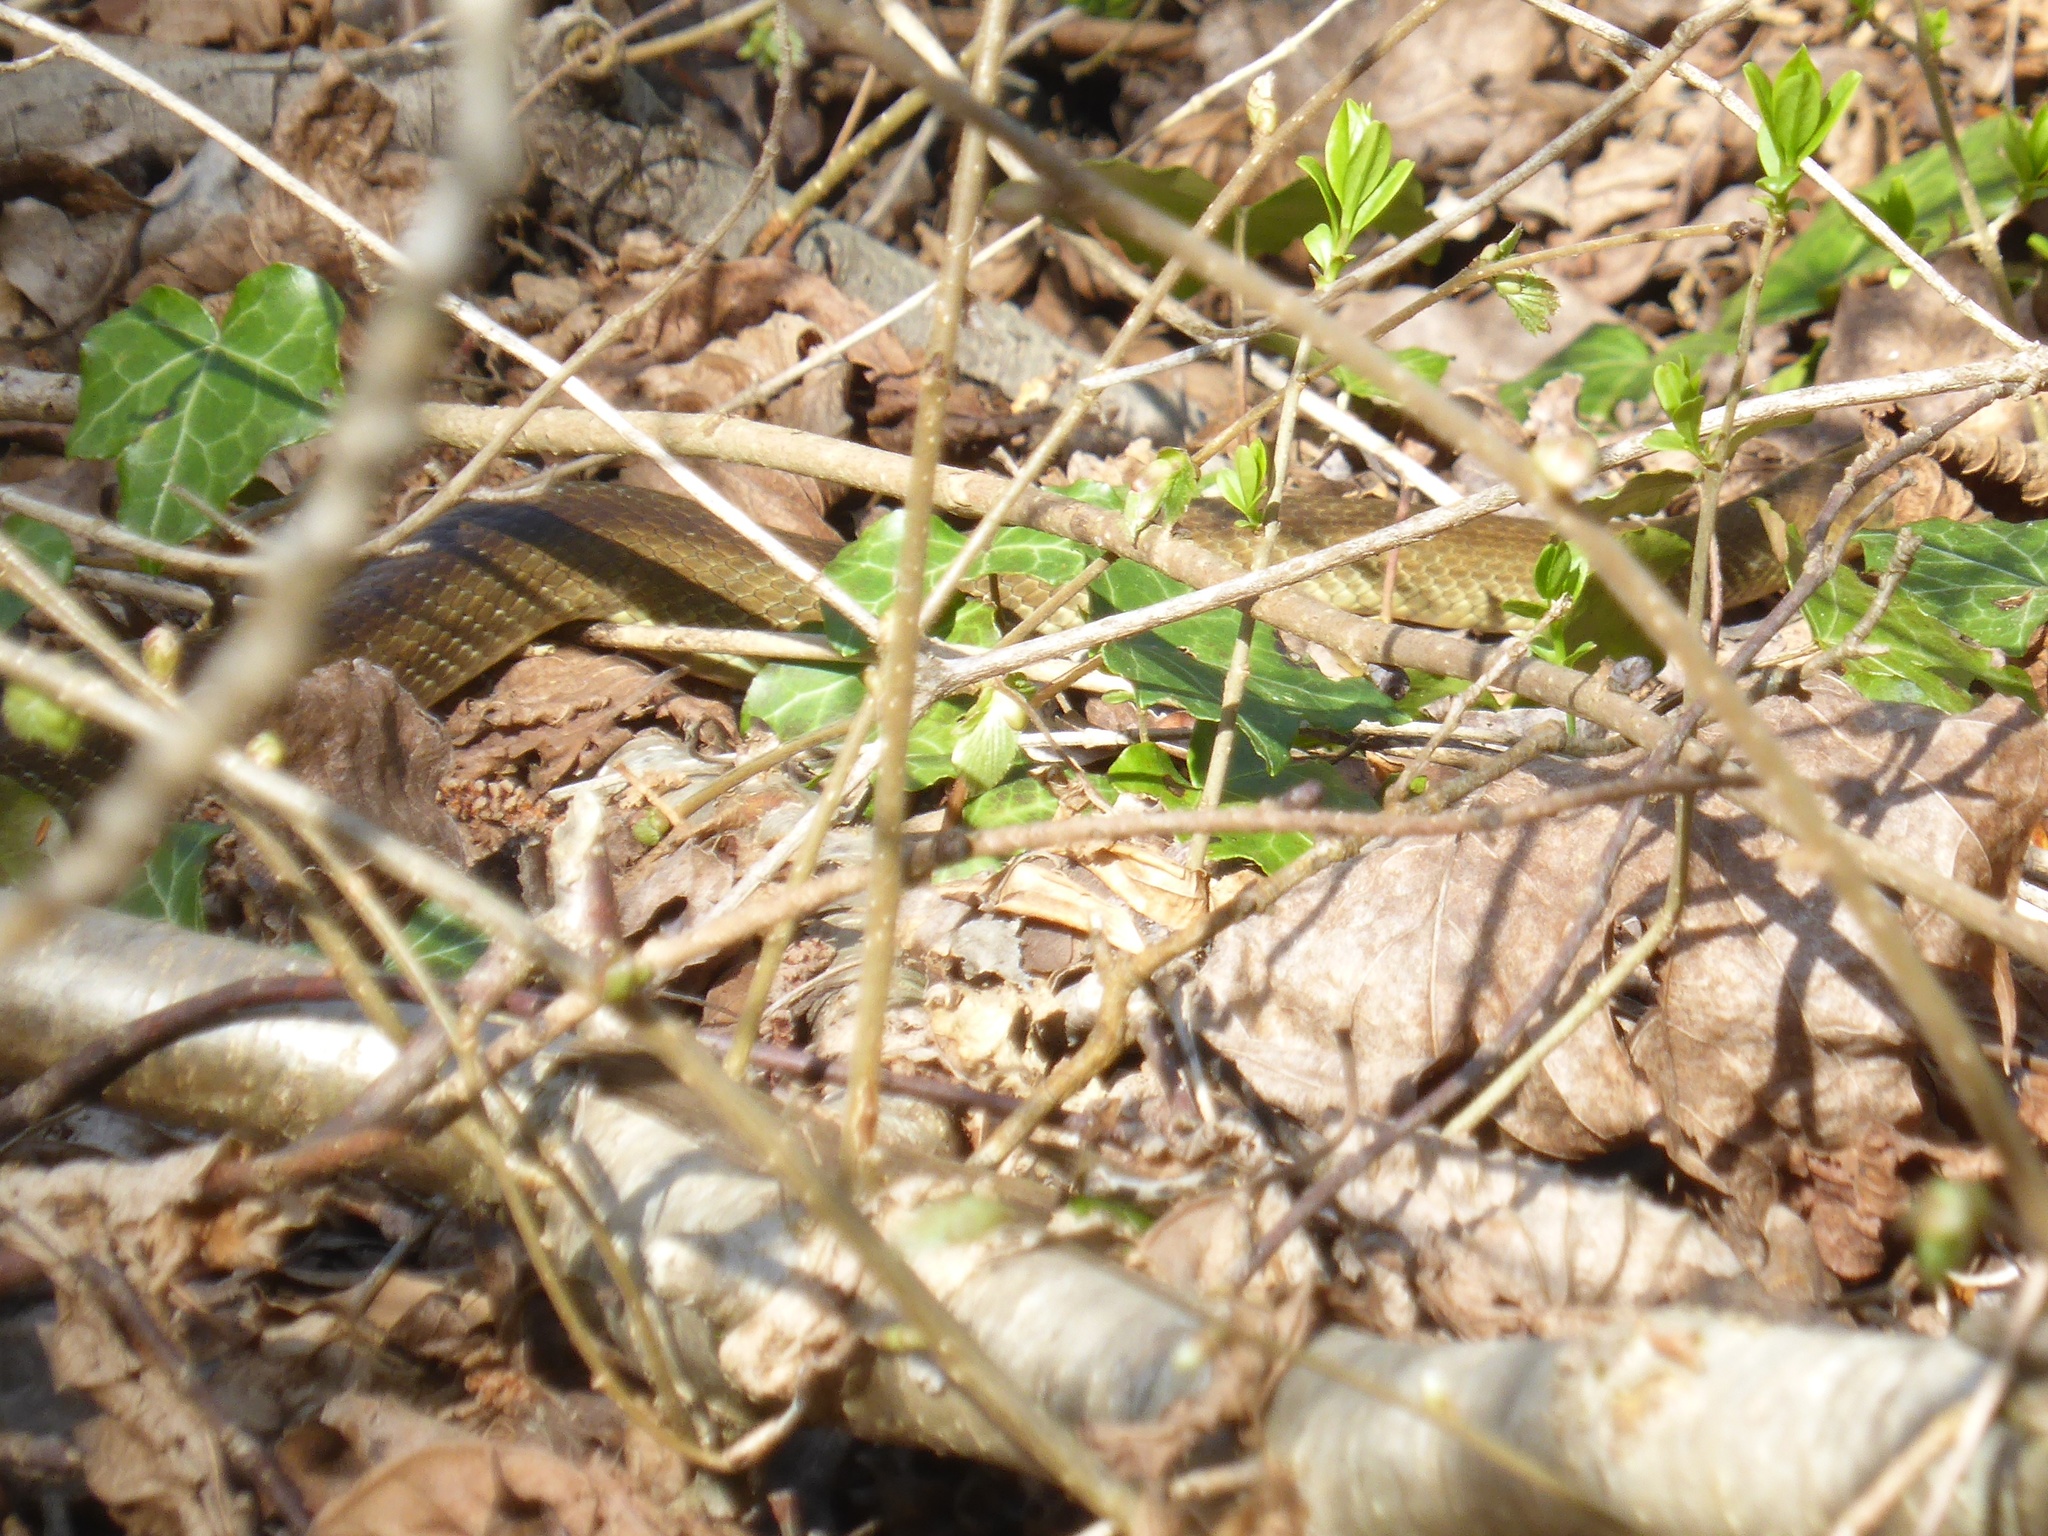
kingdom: Animalia
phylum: Chordata
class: Squamata
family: Colubridae
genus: Zamenis
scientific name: Zamenis longissimus
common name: Aesculapean snake
